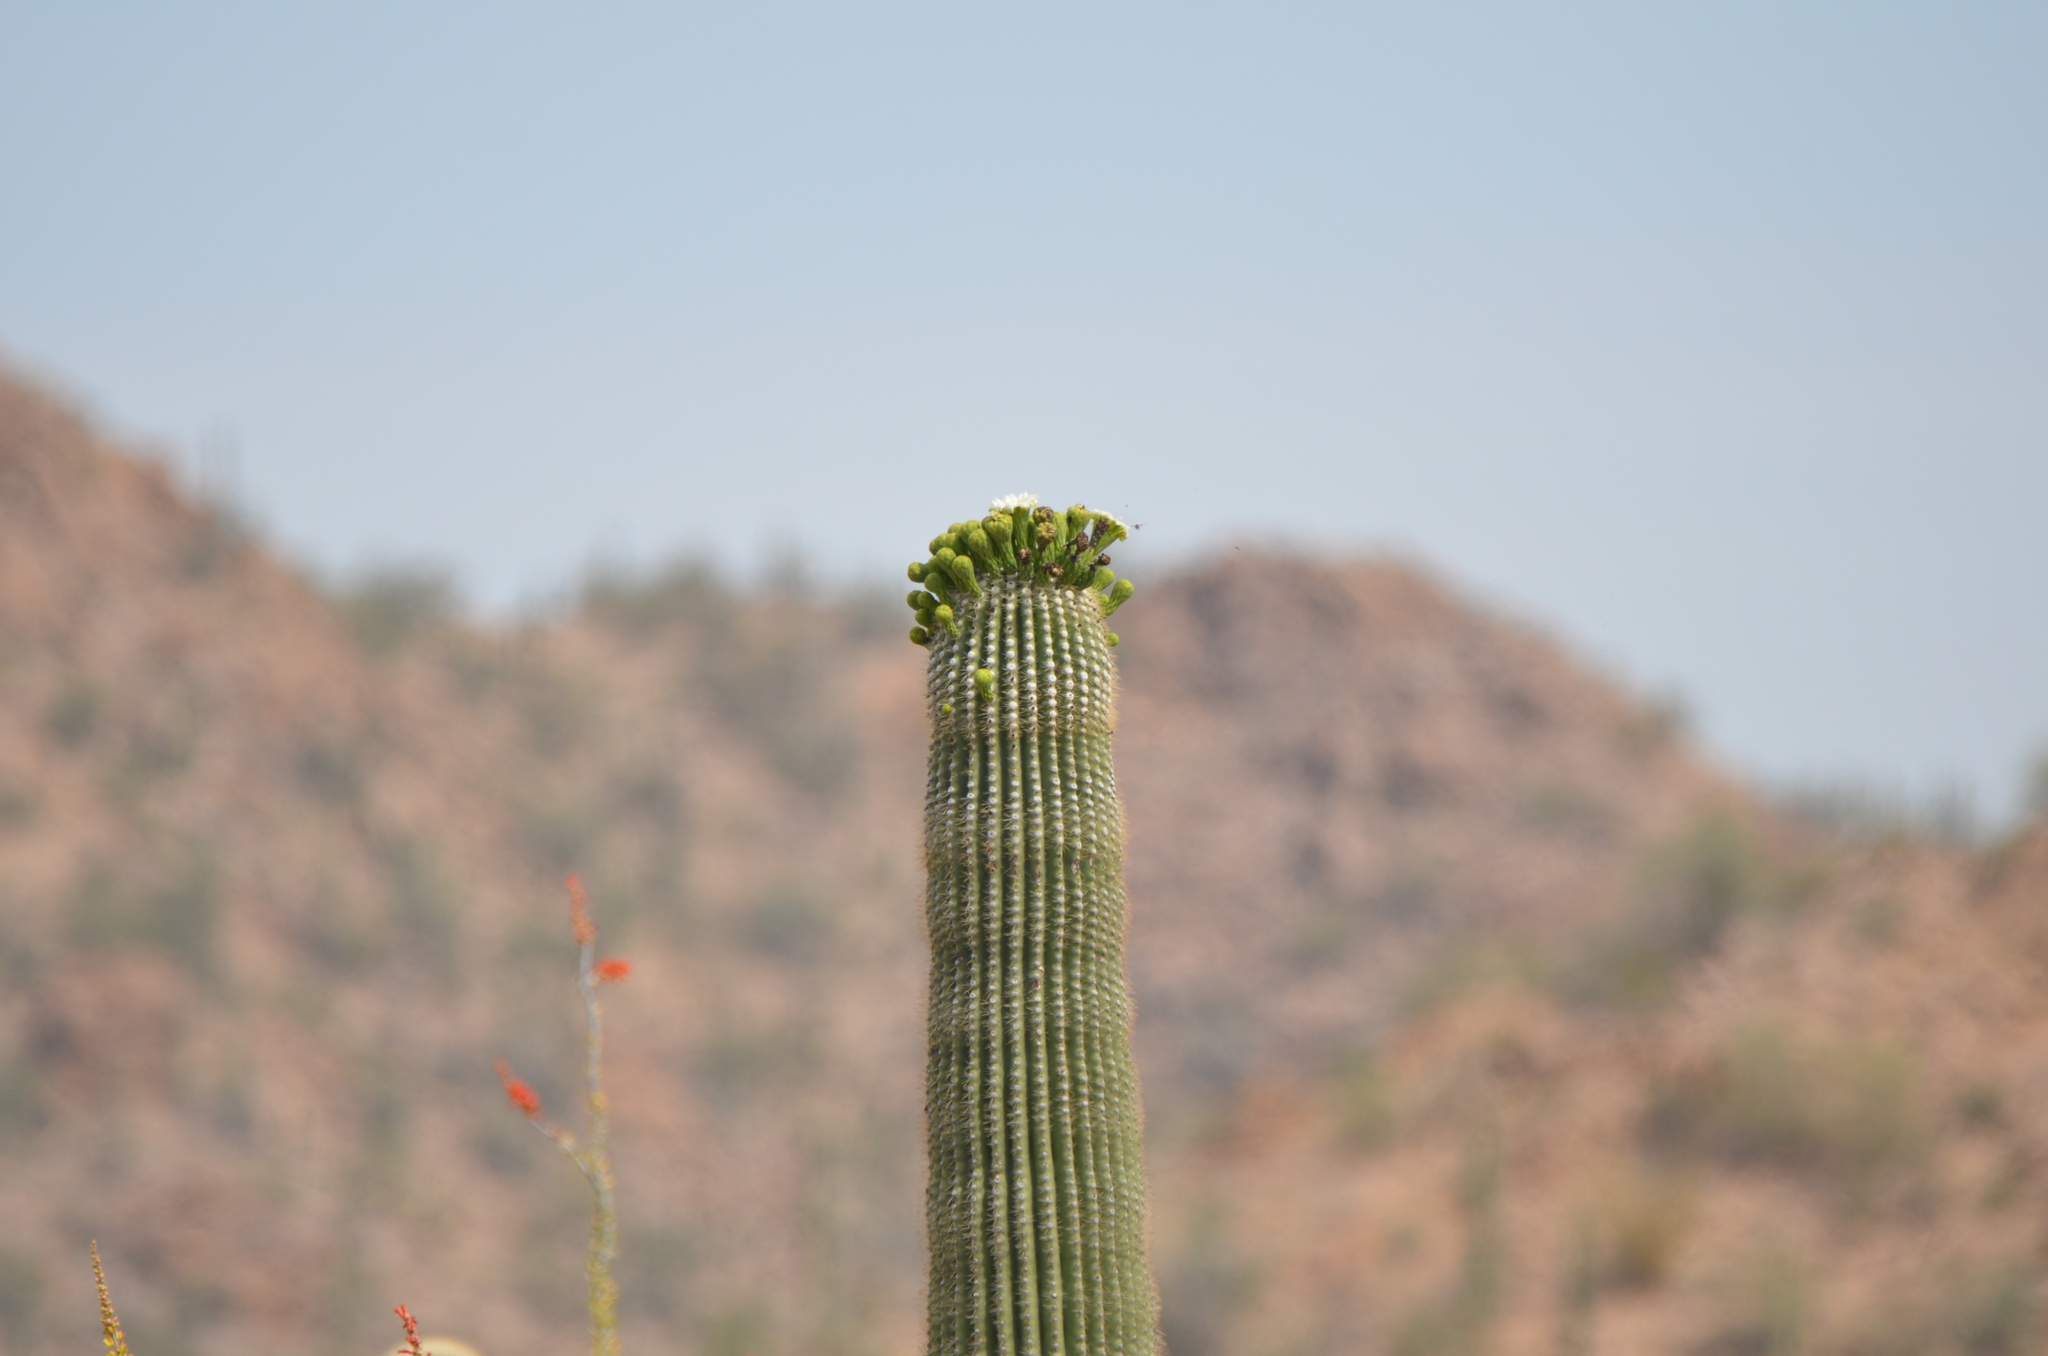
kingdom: Plantae
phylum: Tracheophyta
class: Magnoliopsida
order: Caryophyllales
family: Cactaceae
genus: Carnegiea
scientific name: Carnegiea gigantea
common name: Saguaro
